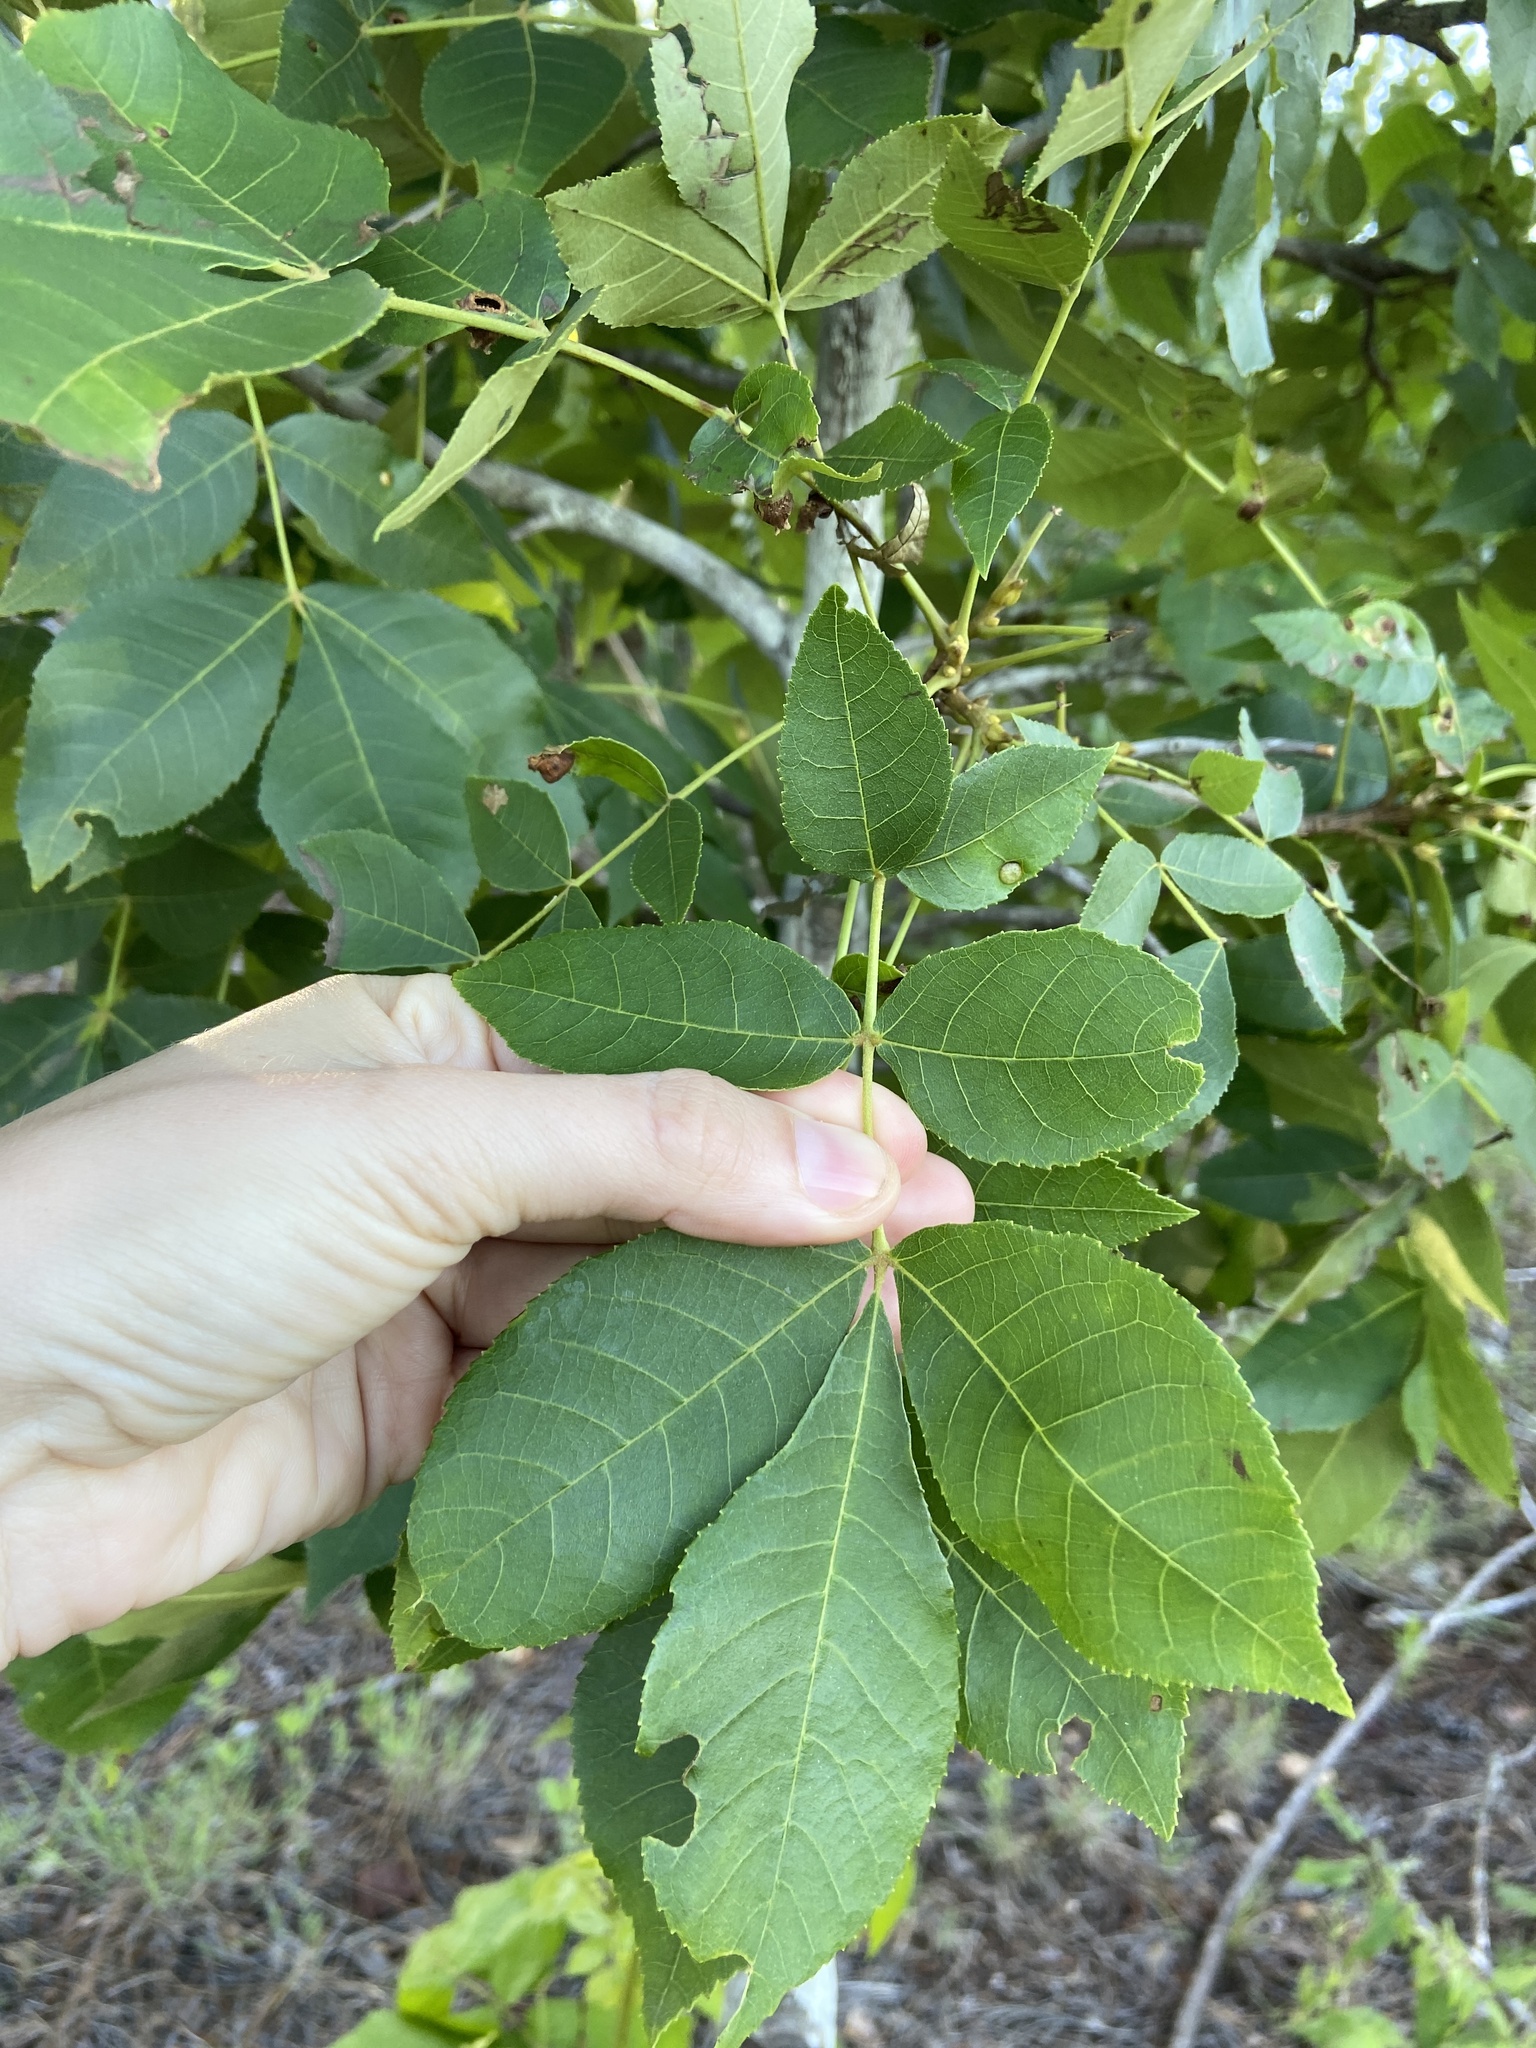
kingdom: Plantae
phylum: Tracheophyta
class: Magnoliopsida
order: Fagales
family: Juglandaceae
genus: Carya
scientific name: Carya texana
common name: Black hickory
